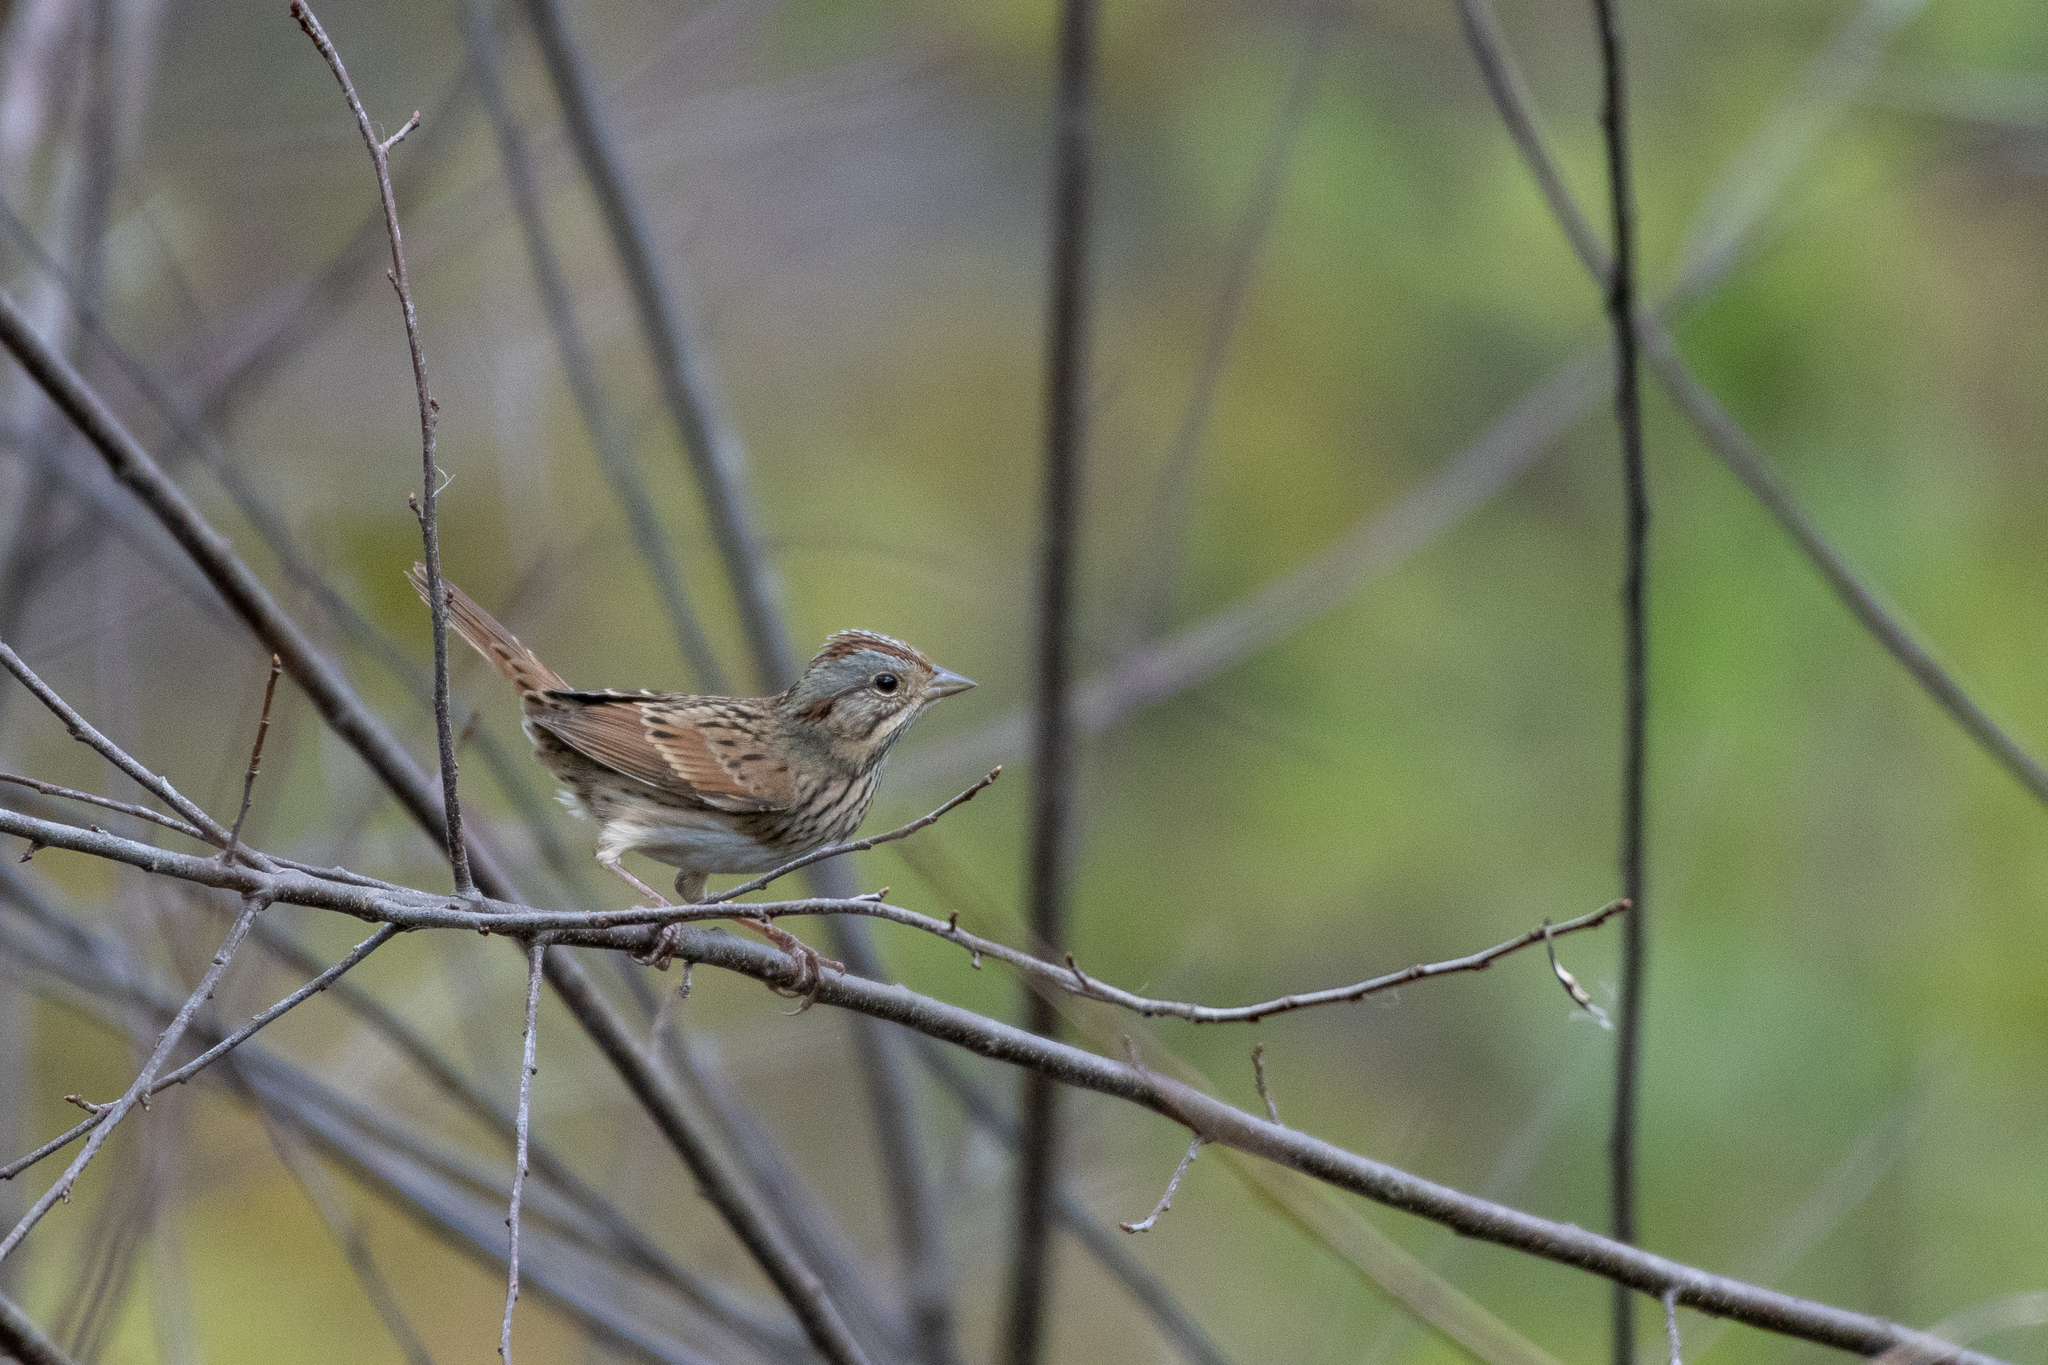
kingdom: Animalia
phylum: Chordata
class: Aves
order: Passeriformes
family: Passerellidae
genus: Melospiza
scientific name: Melospiza lincolnii
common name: Lincoln's sparrow
